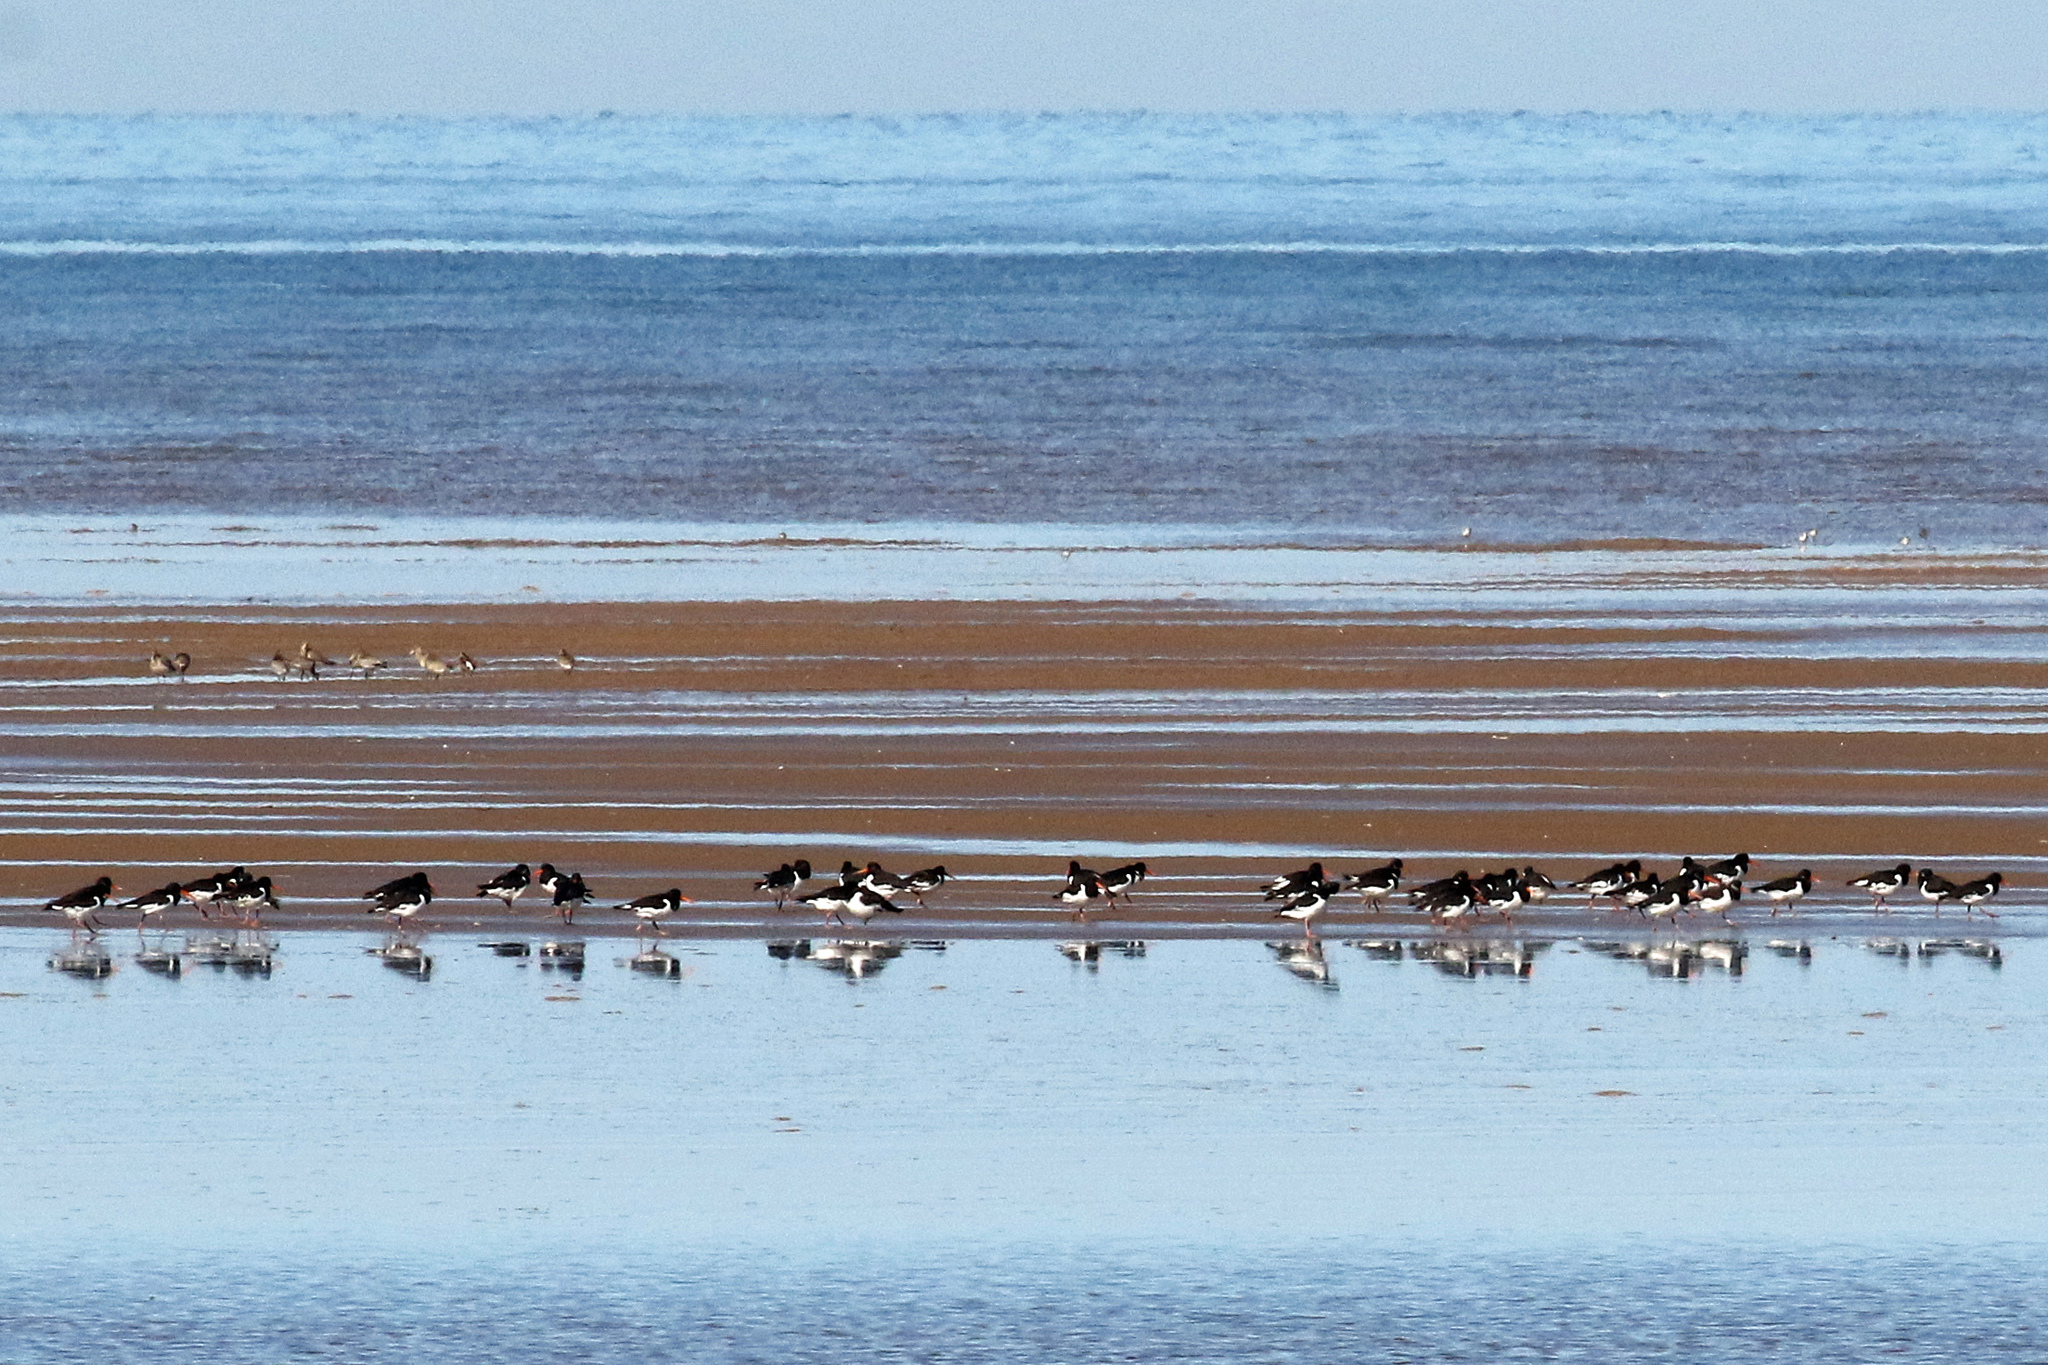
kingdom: Animalia
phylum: Chordata
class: Aves
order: Charadriiformes
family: Haematopodidae
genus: Haematopus
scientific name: Haematopus ostralegus
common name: Eurasian oystercatcher
